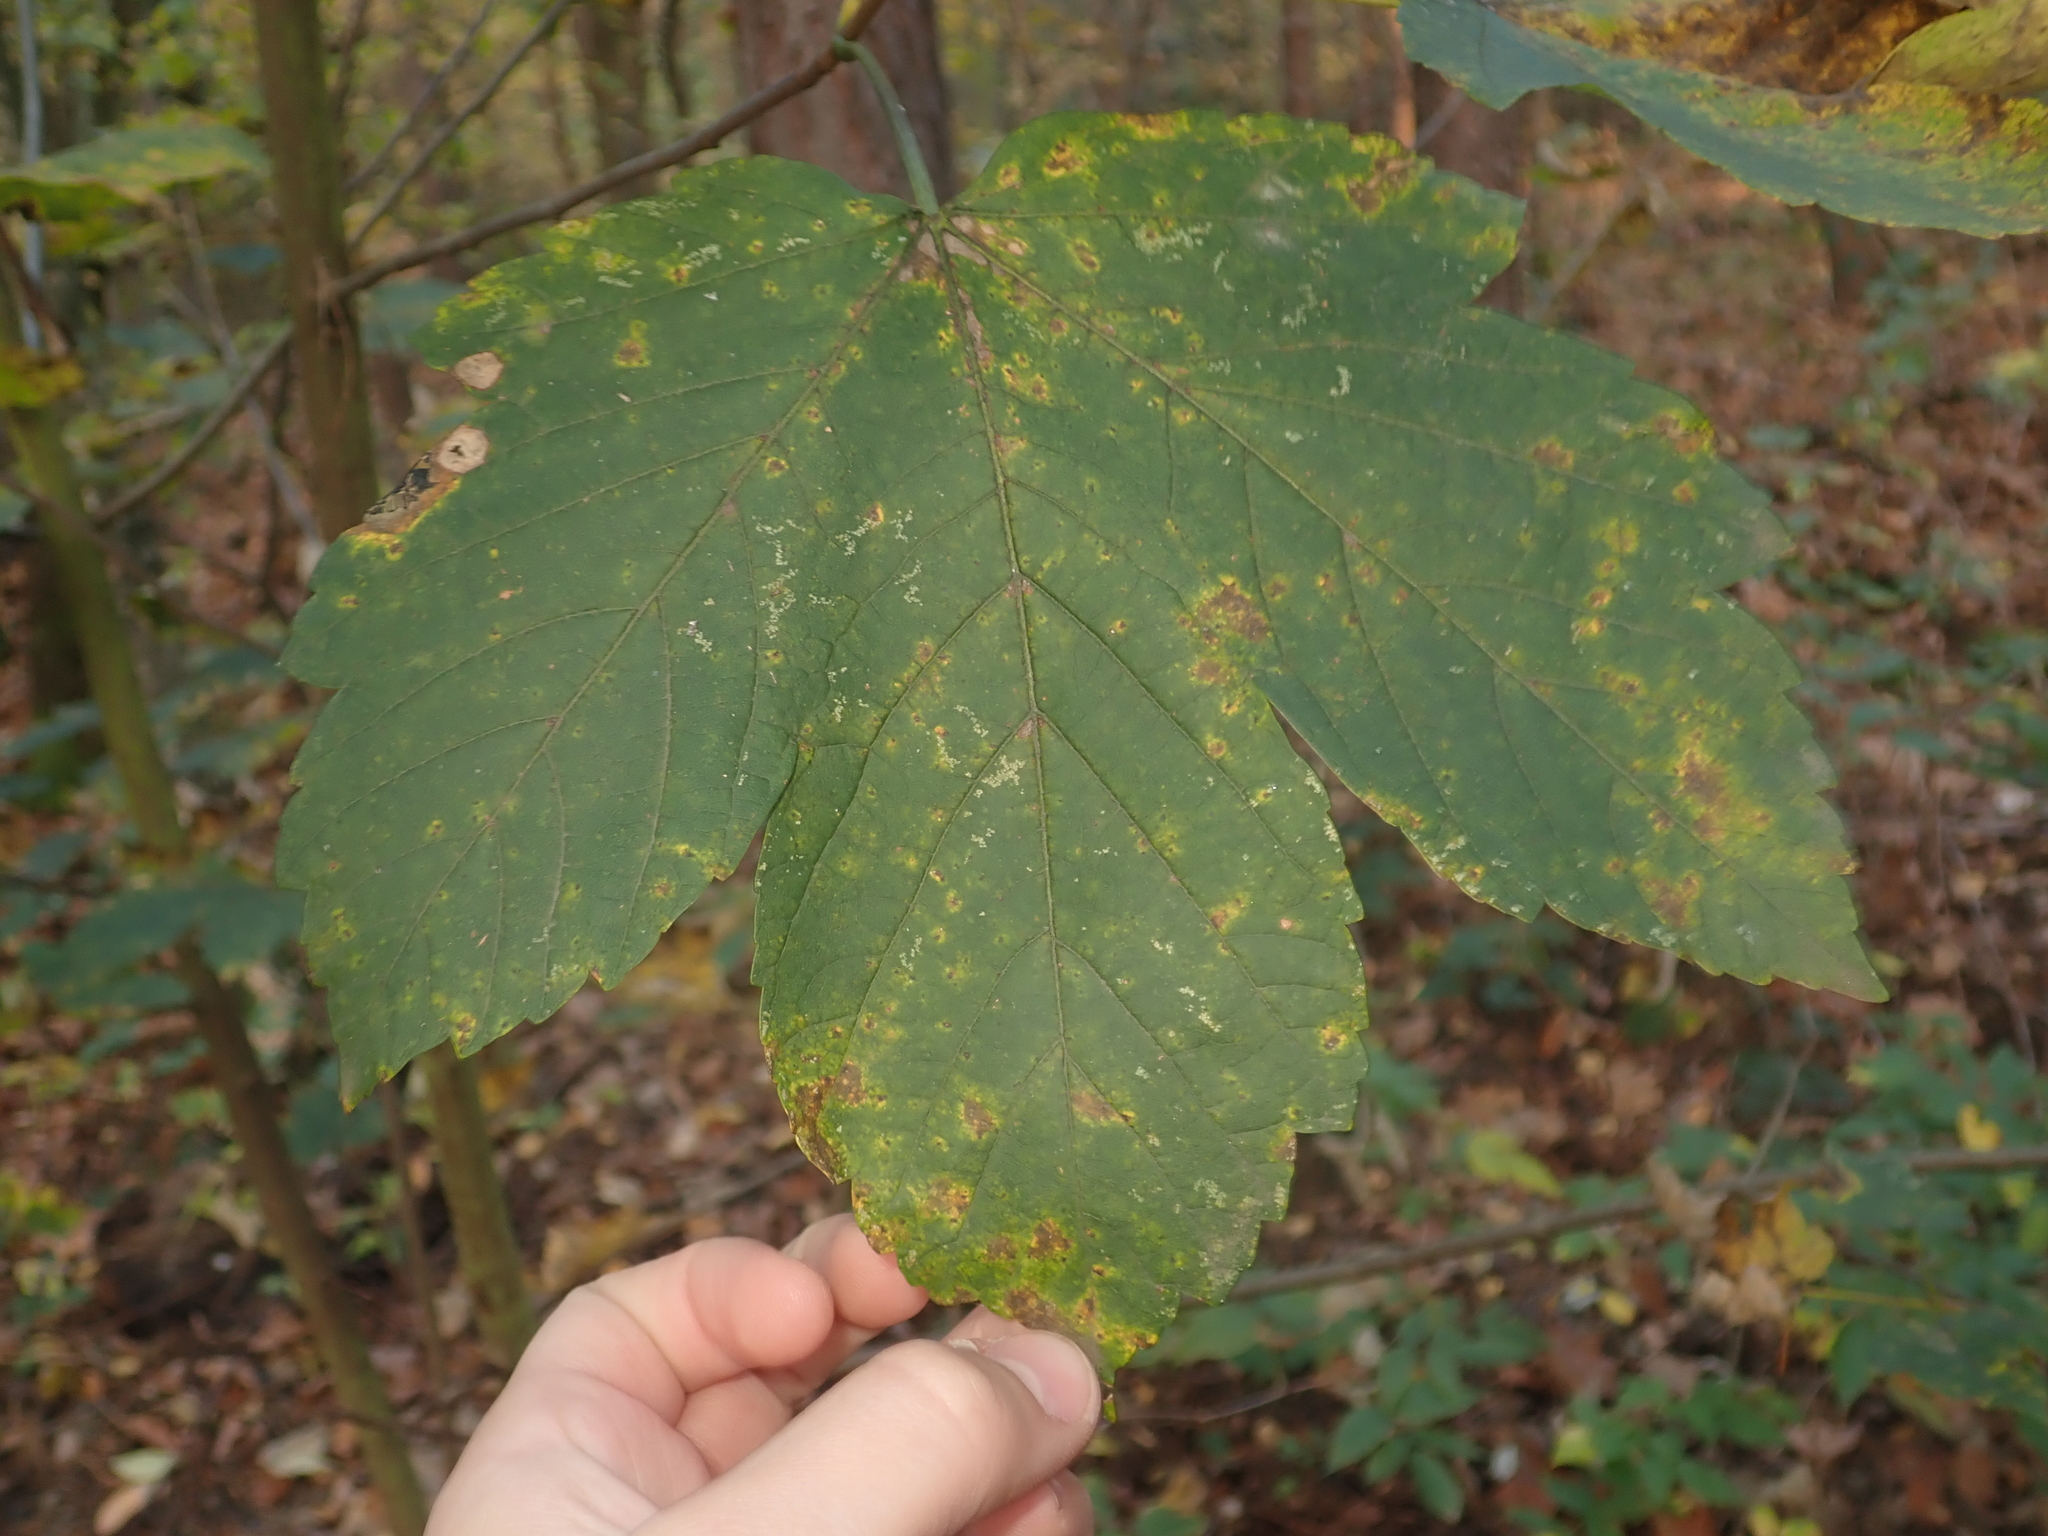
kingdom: Plantae
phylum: Tracheophyta
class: Magnoliopsida
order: Sapindales
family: Sapindaceae
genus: Acer
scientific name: Acer pseudoplatanus
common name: Sycamore
